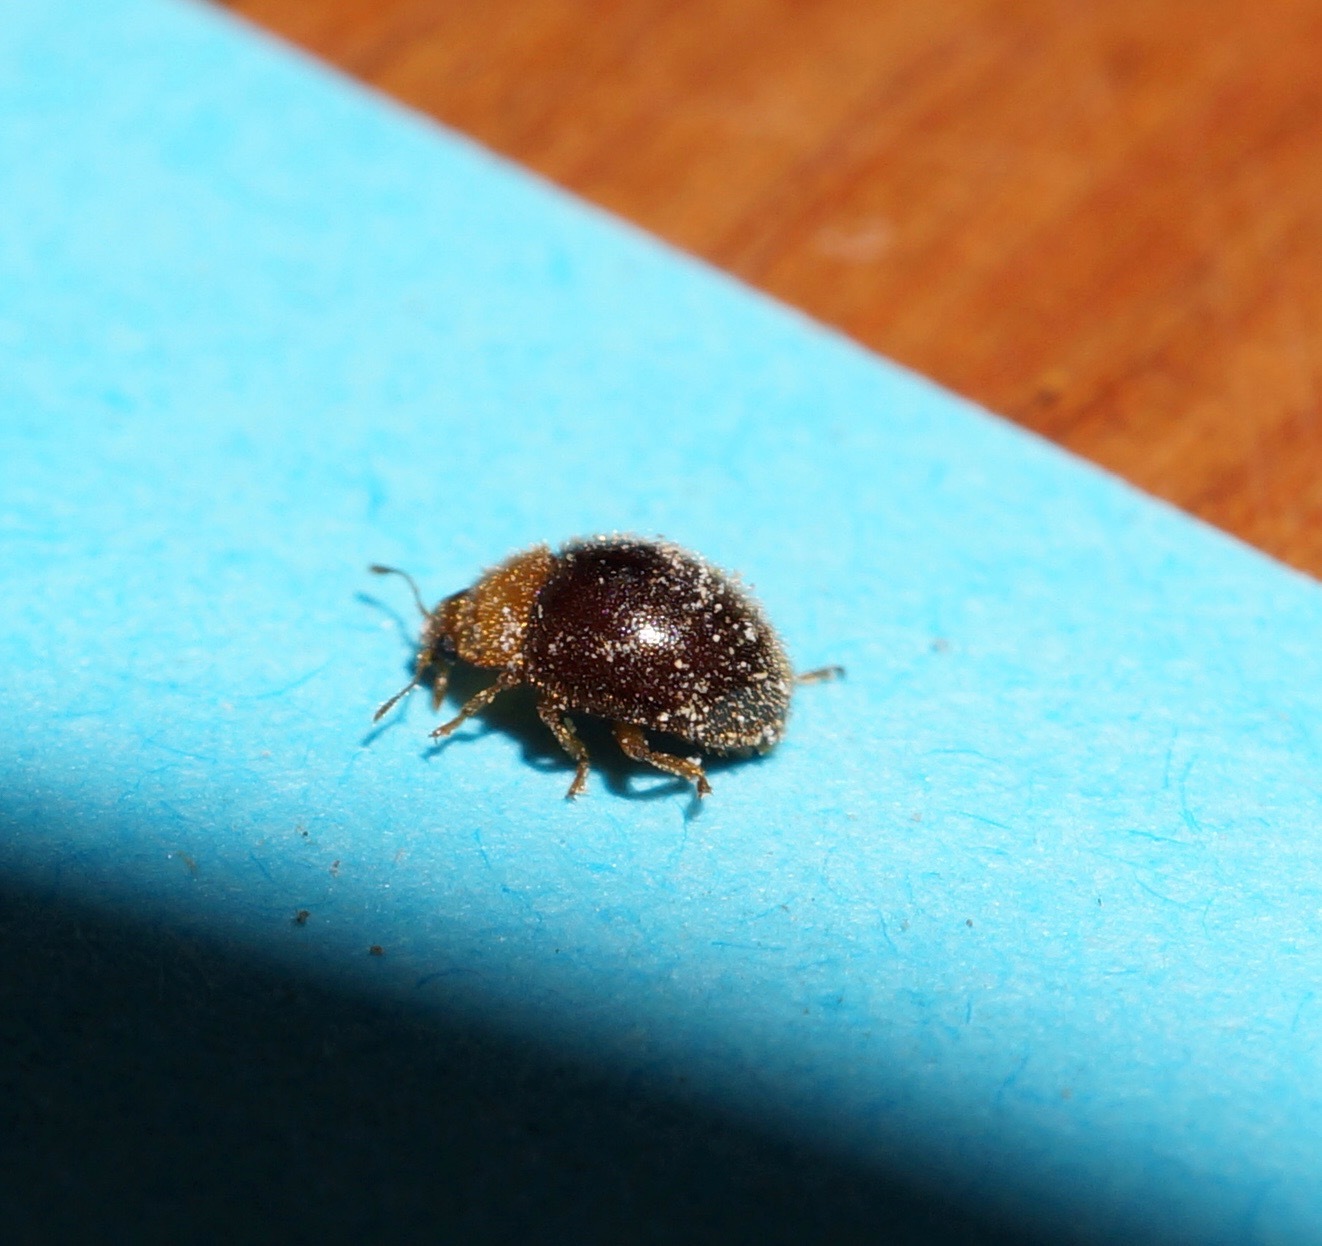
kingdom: Animalia
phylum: Arthropoda
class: Insecta
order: Coleoptera
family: Coccinellidae
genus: Cryptolaemus
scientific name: Cryptolaemus montrouzieri
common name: Mealybug destroyer
